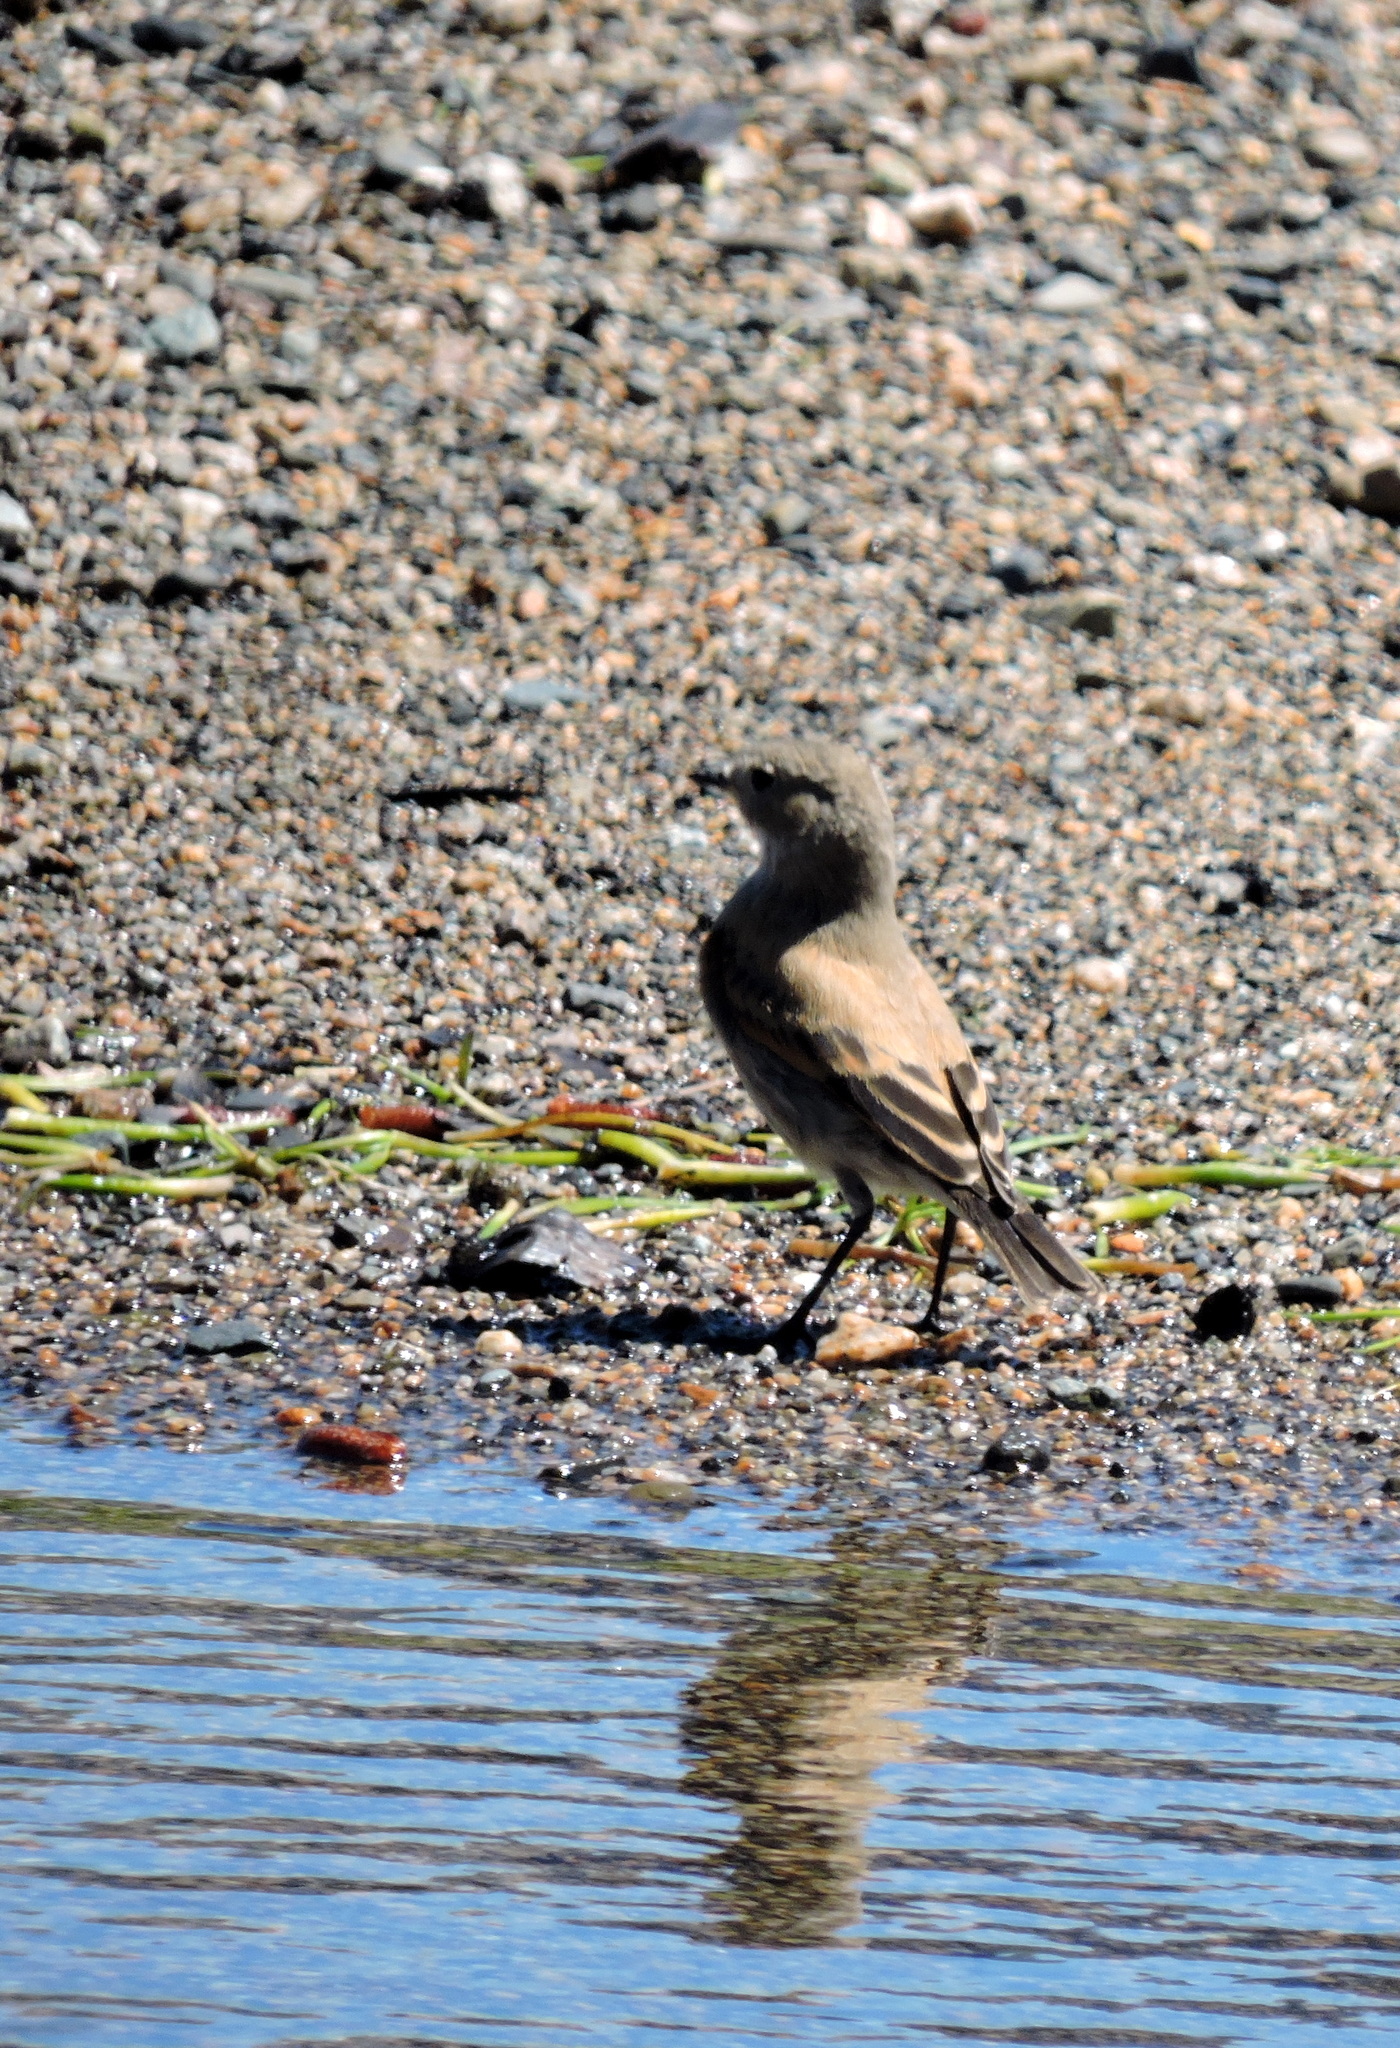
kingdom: Animalia
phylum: Chordata
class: Aves
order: Passeriformes
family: Tyrannidae
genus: Lessonia
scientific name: Lessonia rufa
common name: Austral negrito
